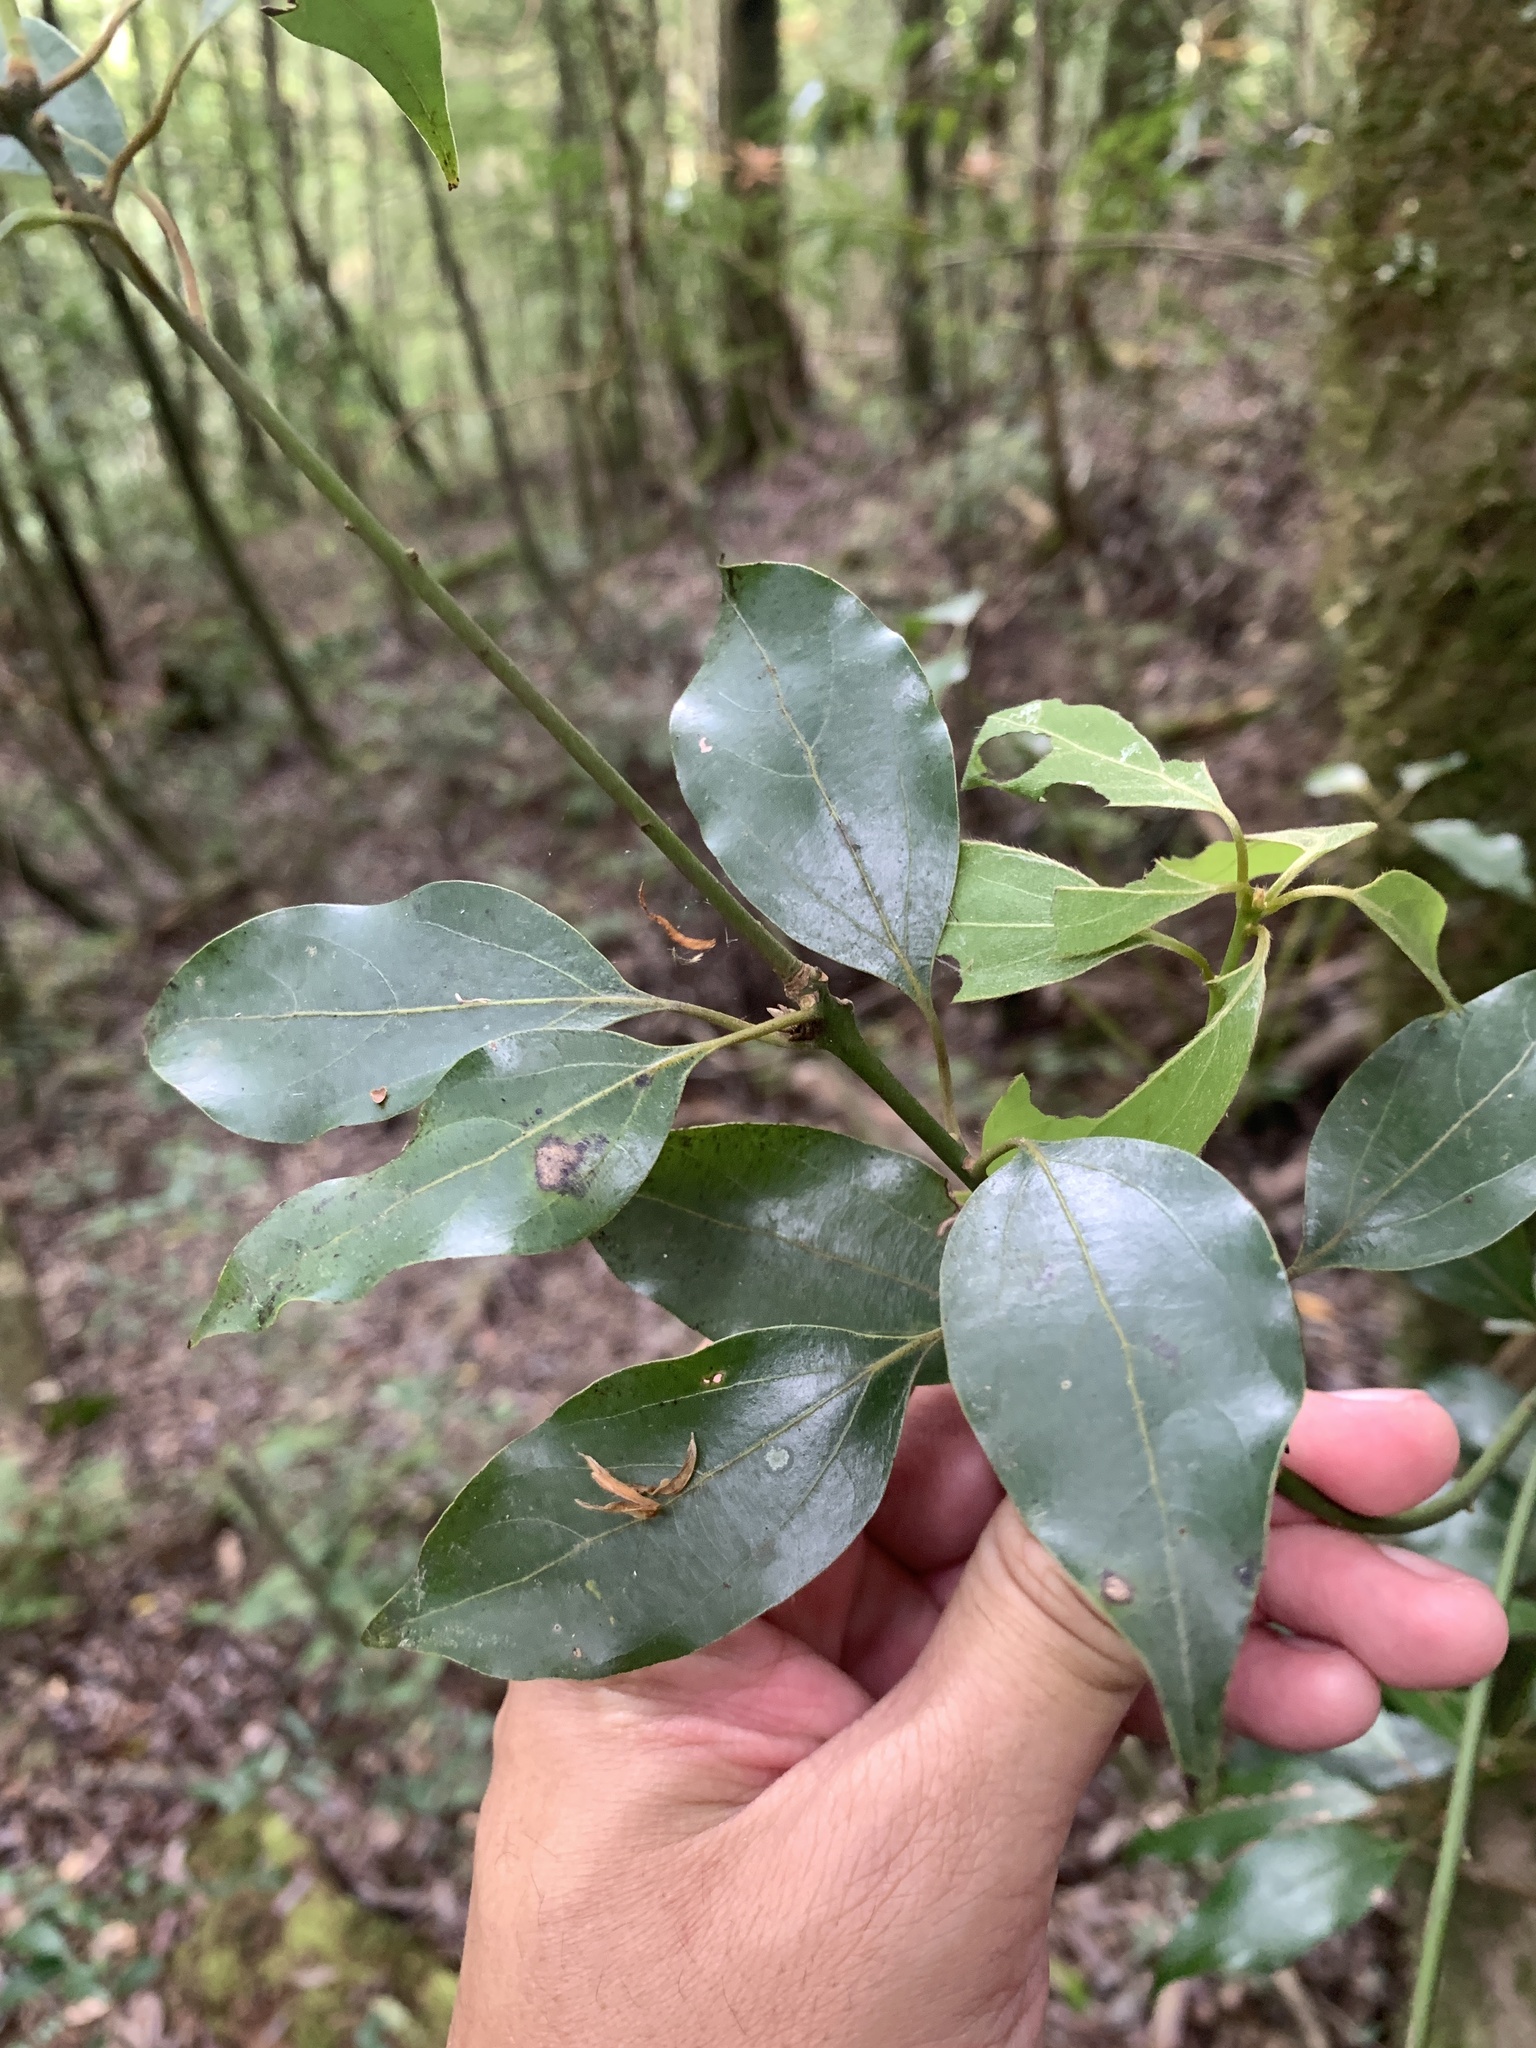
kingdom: Plantae
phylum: Tracheophyta
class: Magnoliopsida
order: Laurales
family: Lauraceae
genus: Neolitsea
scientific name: Neolitsea sericea
